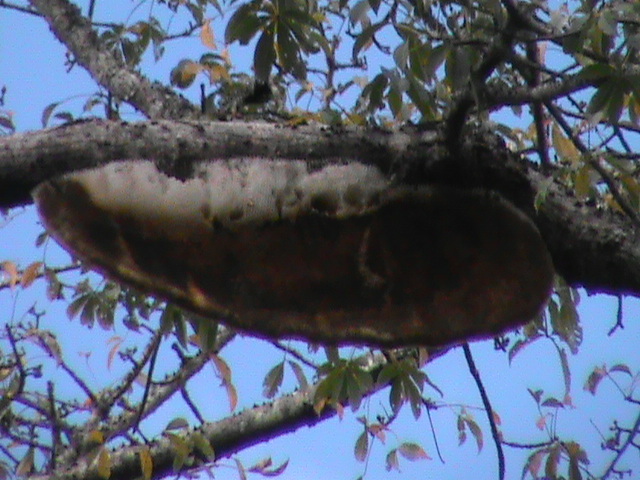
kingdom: Animalia
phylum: Arthropoda
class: Insecta
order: Hymenoptera
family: Apidae
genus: Apis
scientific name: Apis dorsata
